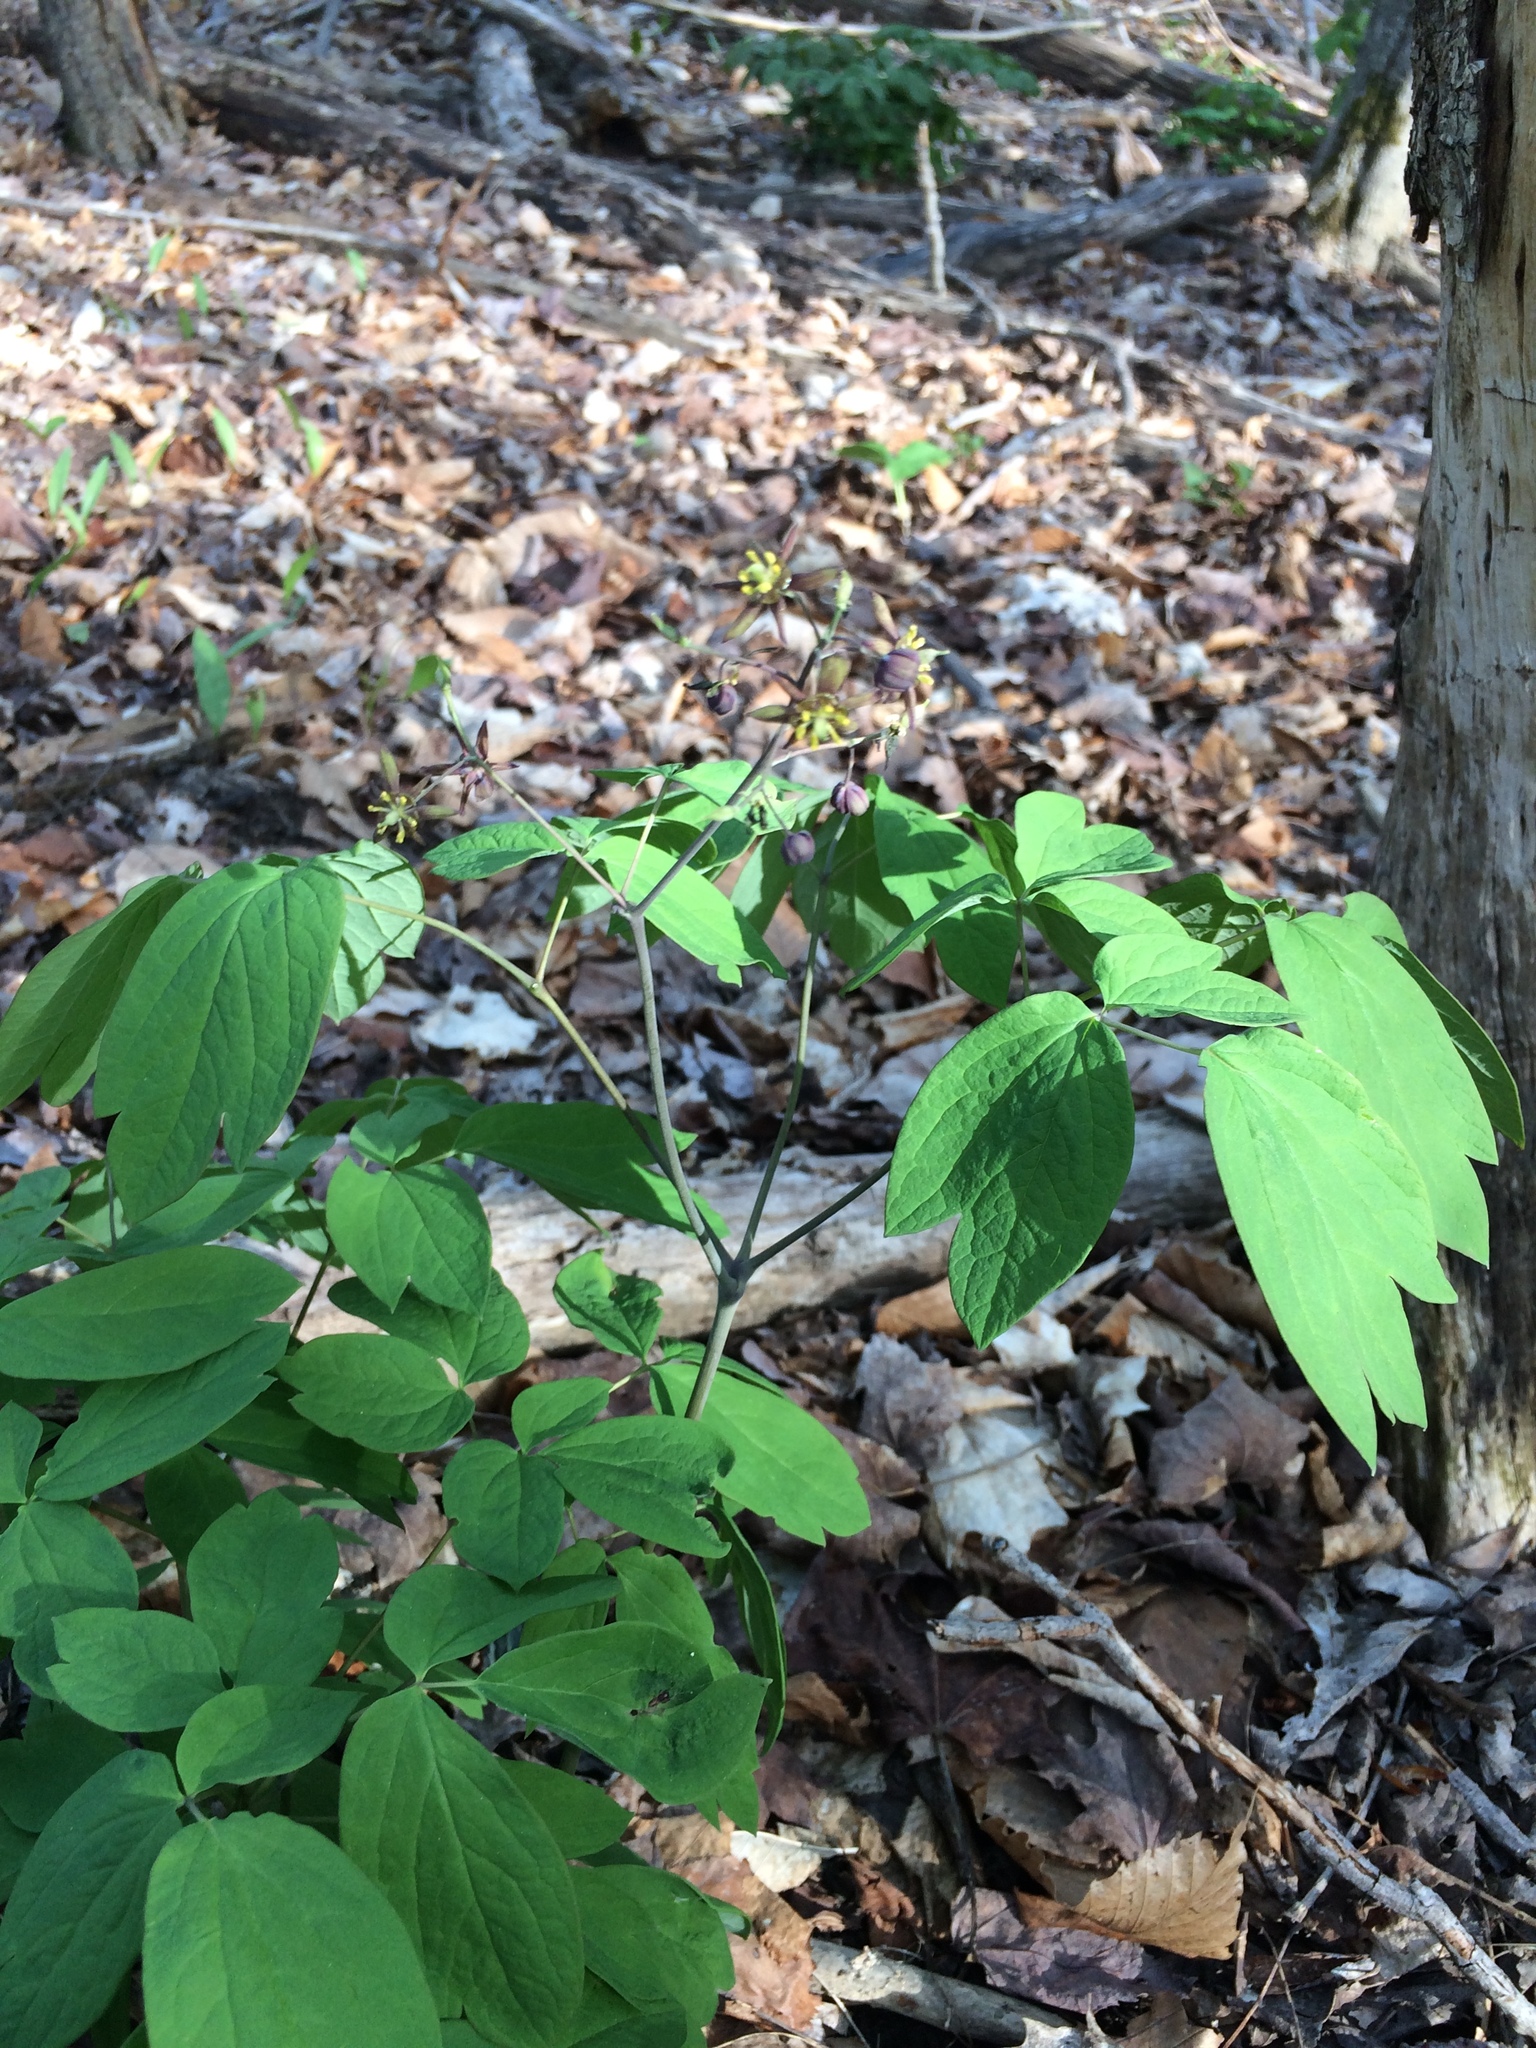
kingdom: Plantae
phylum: Tracheophyta
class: Magnoliopsida
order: Ranunculales
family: Berberidaceae
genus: Caulophyllum
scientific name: Caulophyllum giganteum
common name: Blue cohosh
